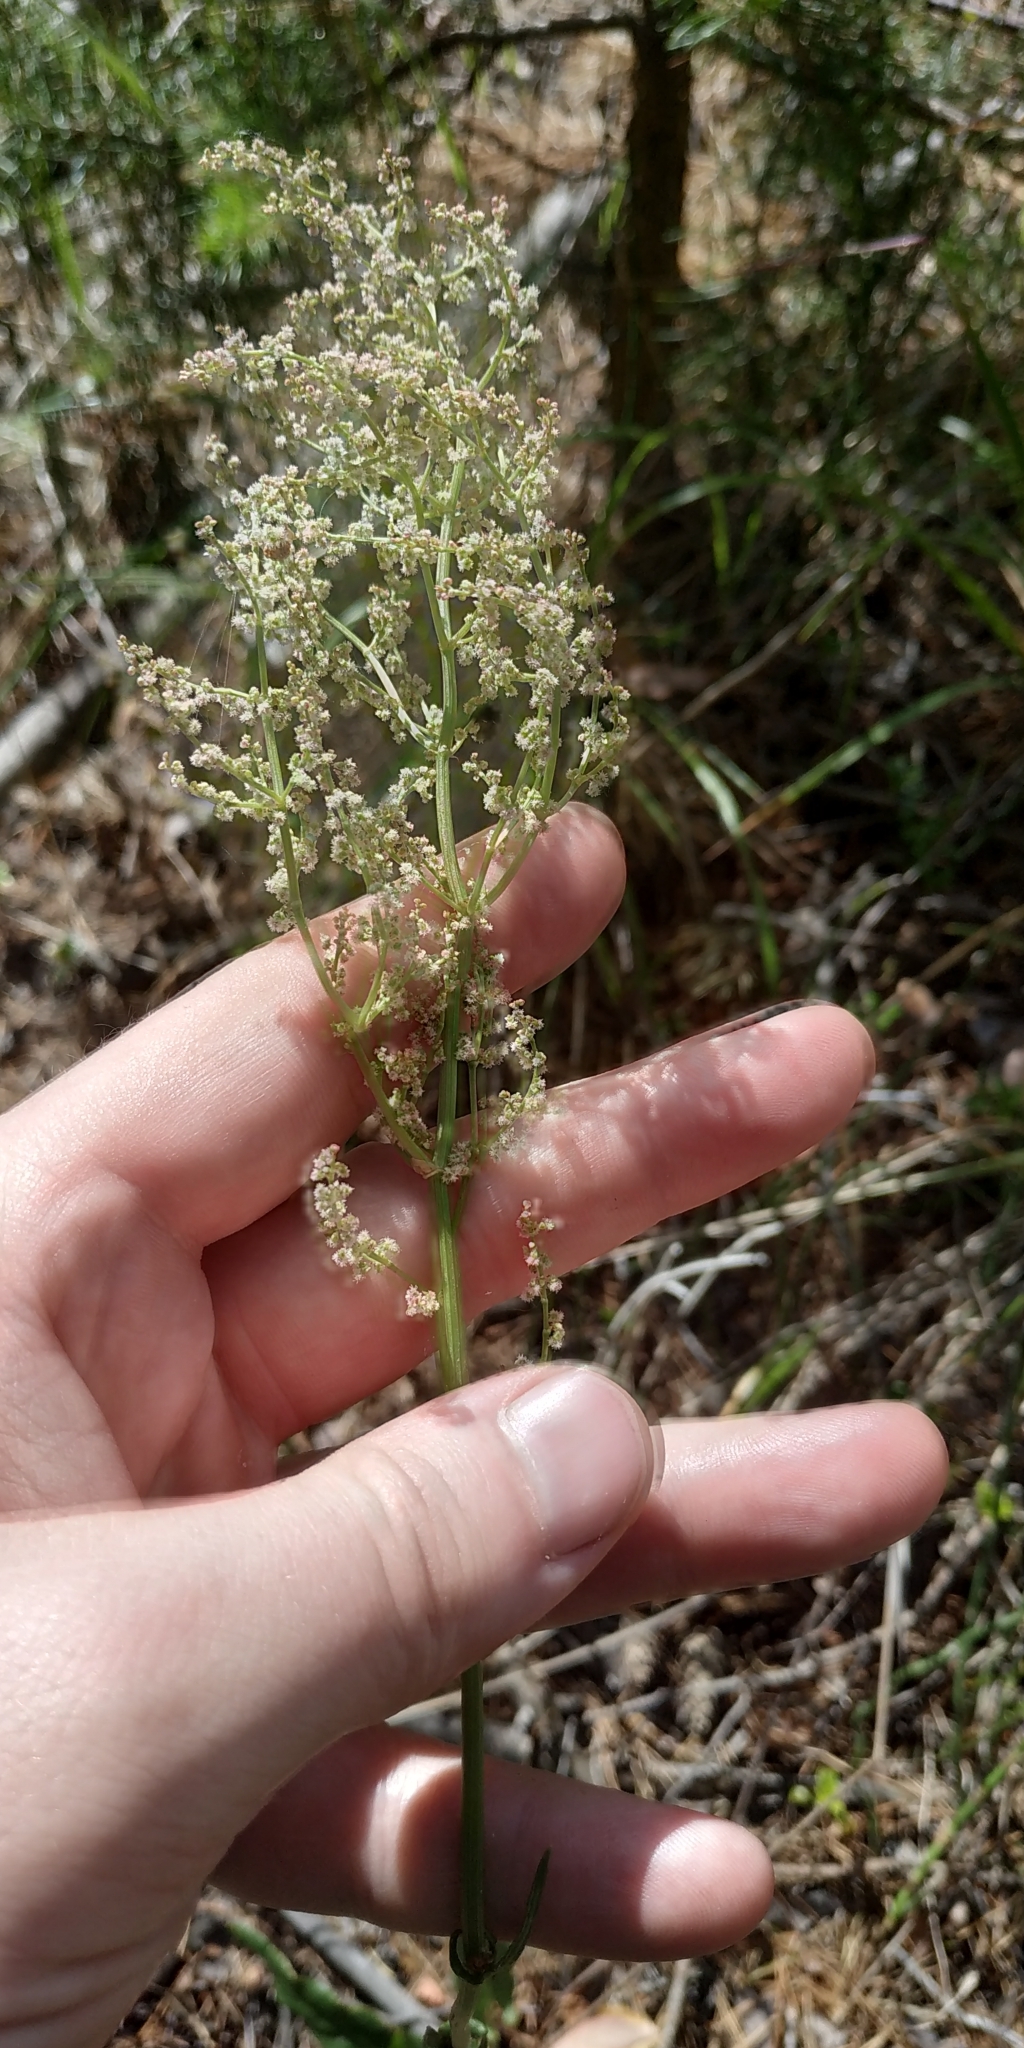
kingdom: Plantae
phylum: Tracheophyta
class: Magnoliopsida
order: Caryophyllales
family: Polygonaceae
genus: Rumex
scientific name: Rumex thyrsiflorus
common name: Garden sorrel
